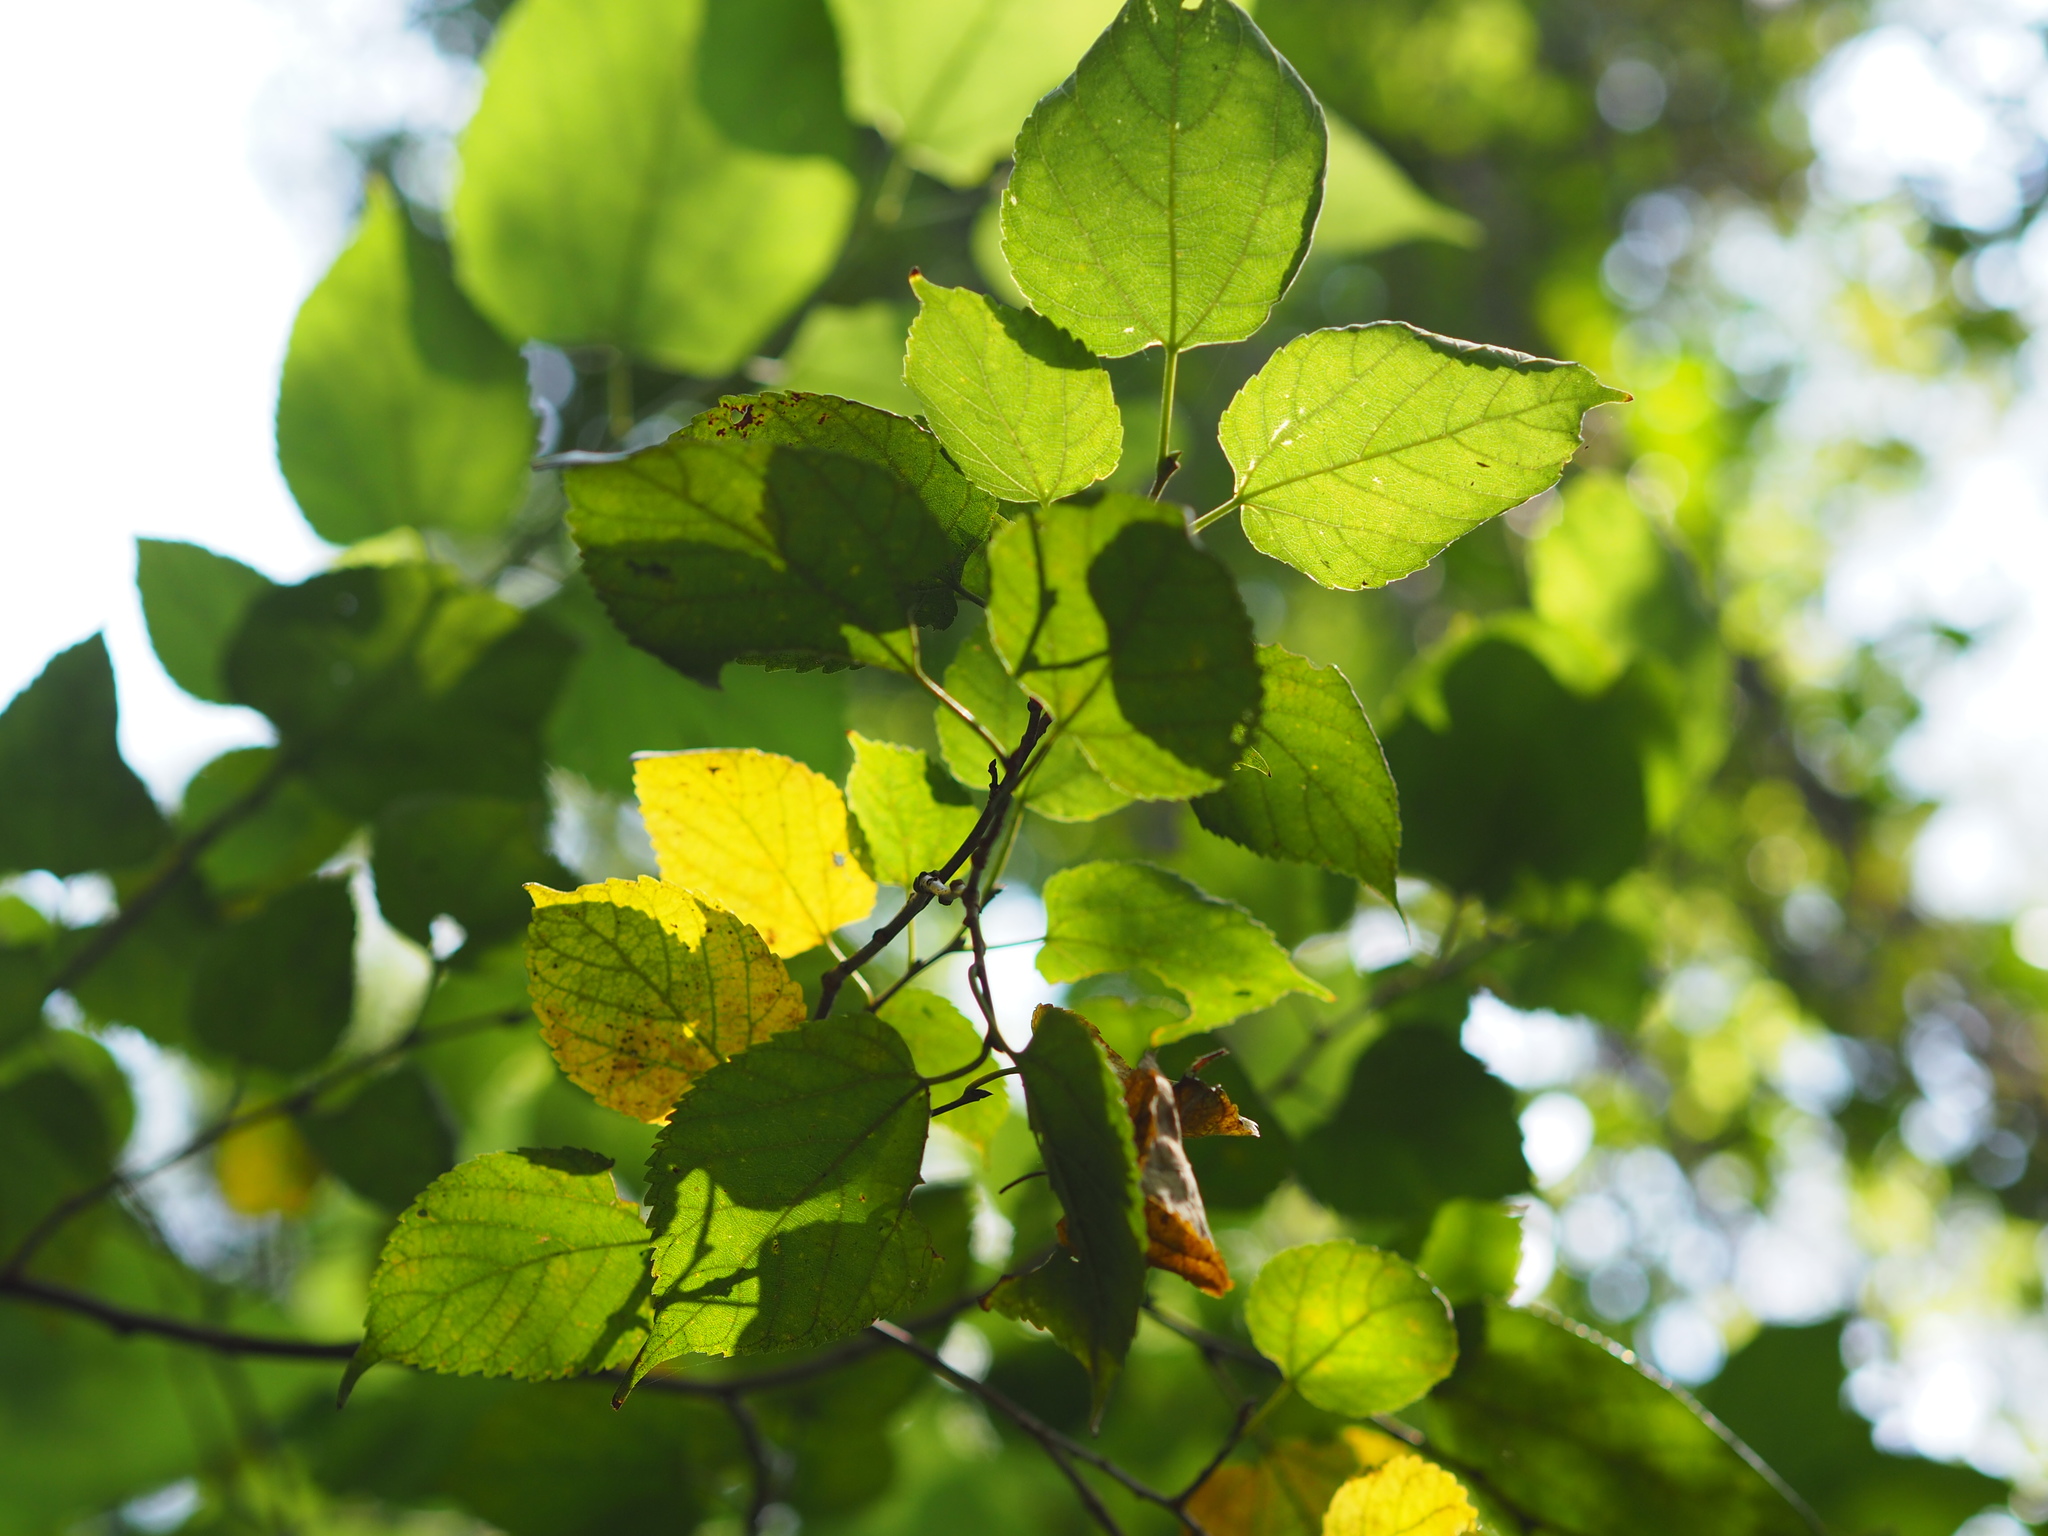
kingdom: Plantae
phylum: Tracheophyta
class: Magnoliopsida
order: Rosales
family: Moraceae
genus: Morus
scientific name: Morus indica
